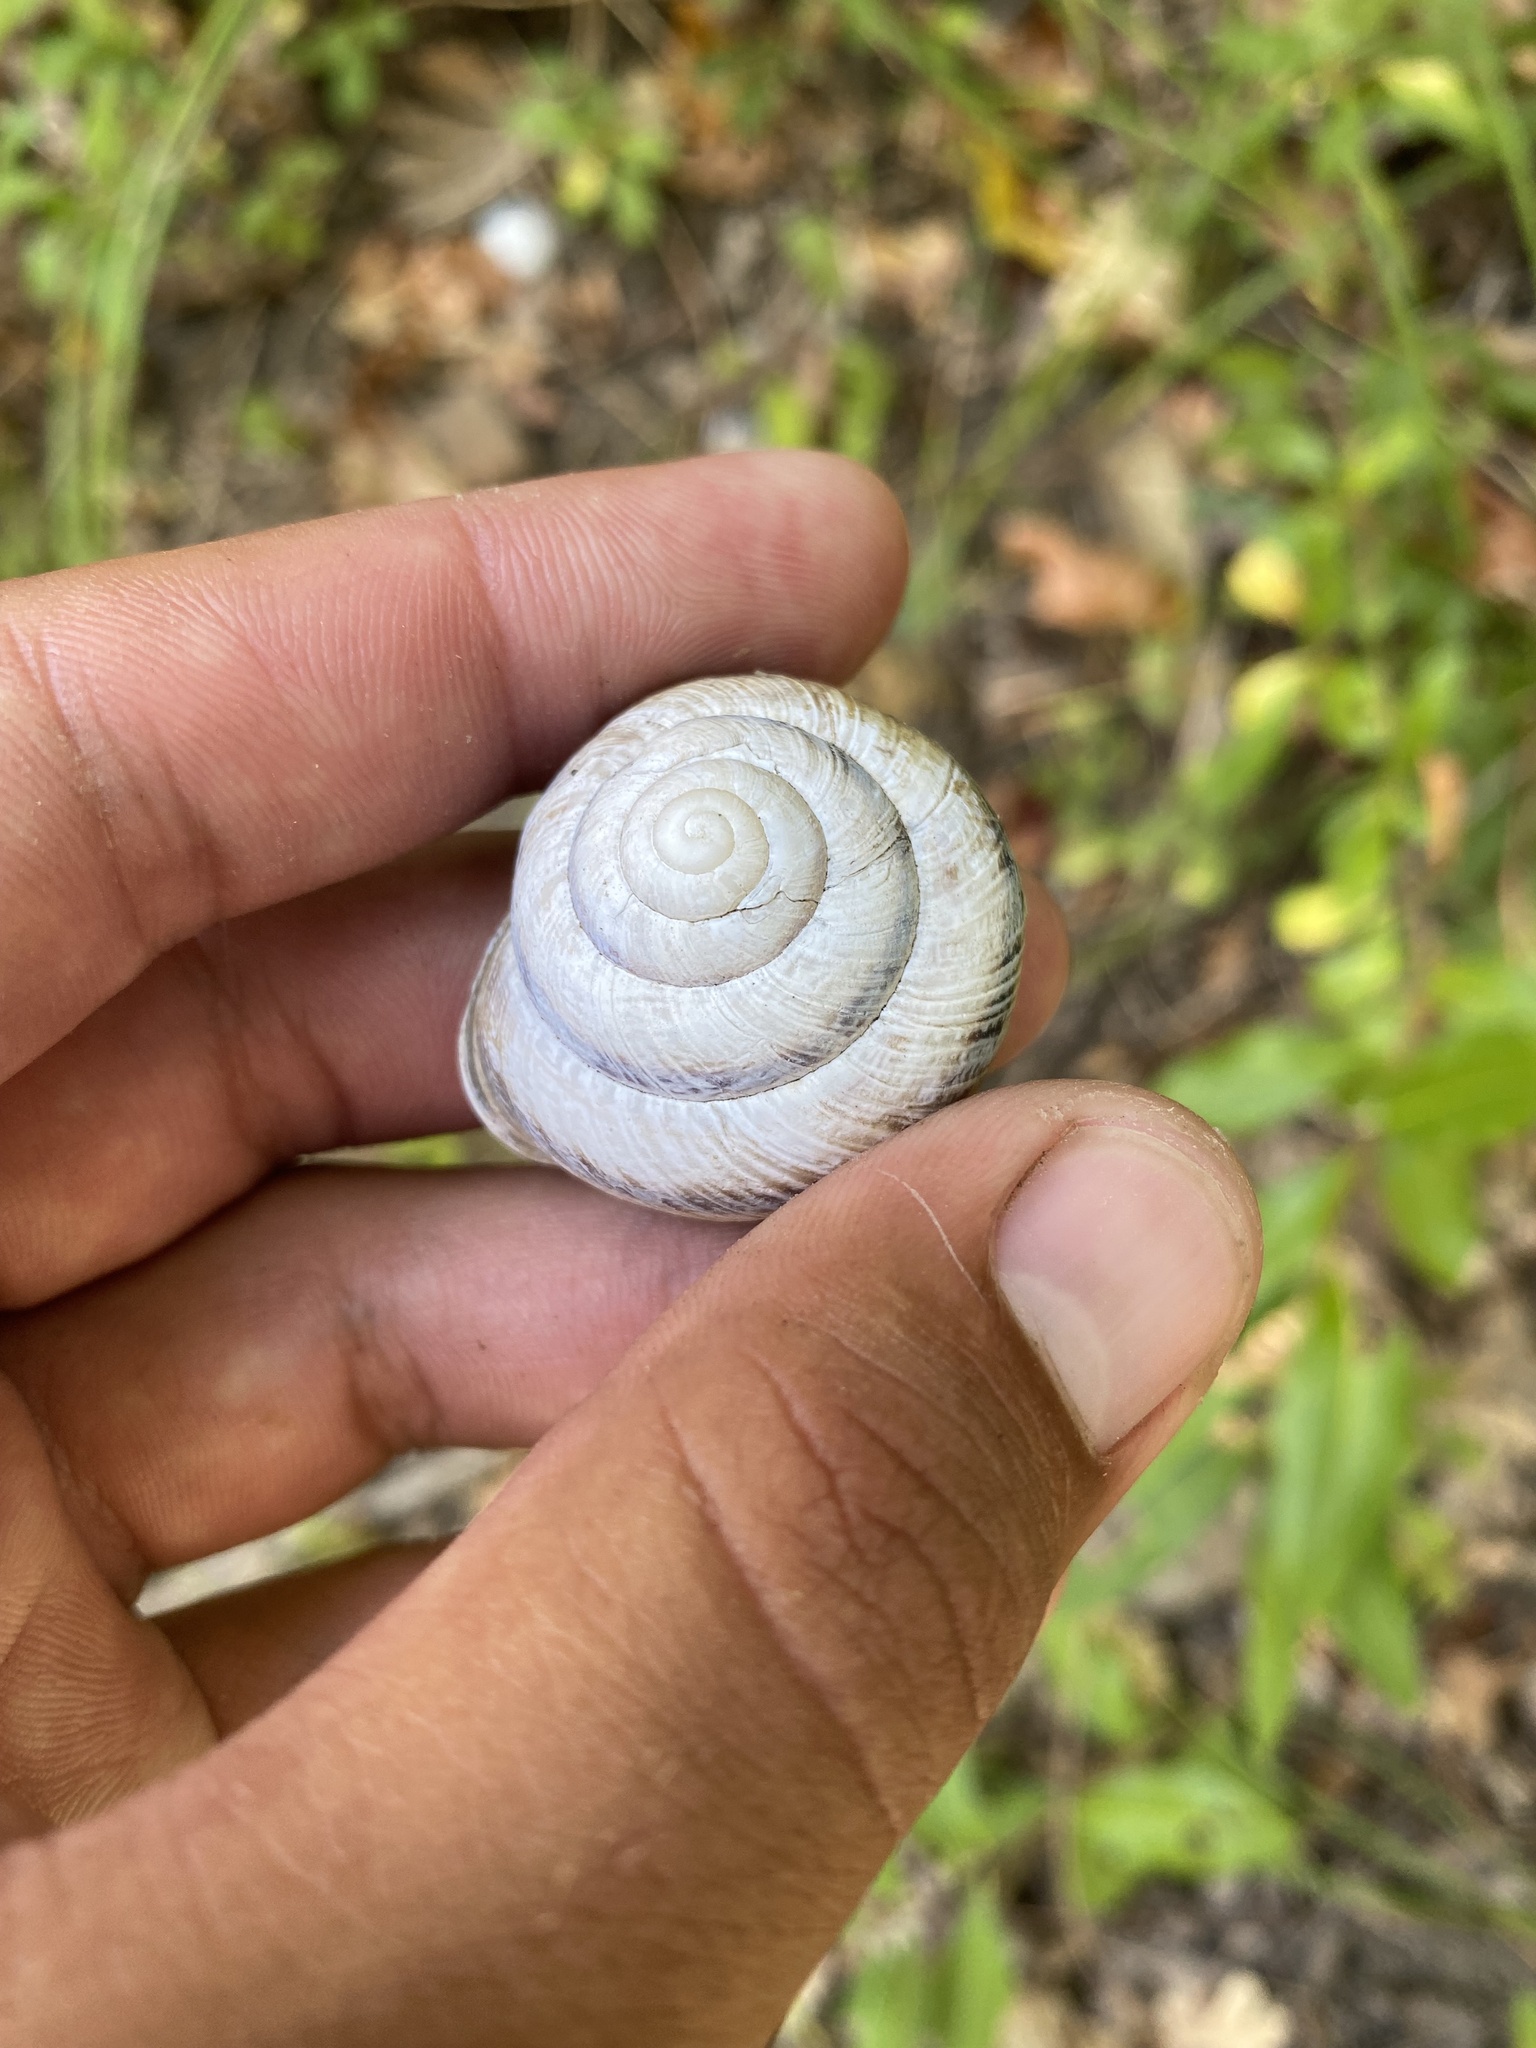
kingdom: Animalia
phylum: Mollusca
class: Gastropoda
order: Stylommatophora
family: Helicidae
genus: Caucasotachea
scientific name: Caucasotachea atrolabiata
